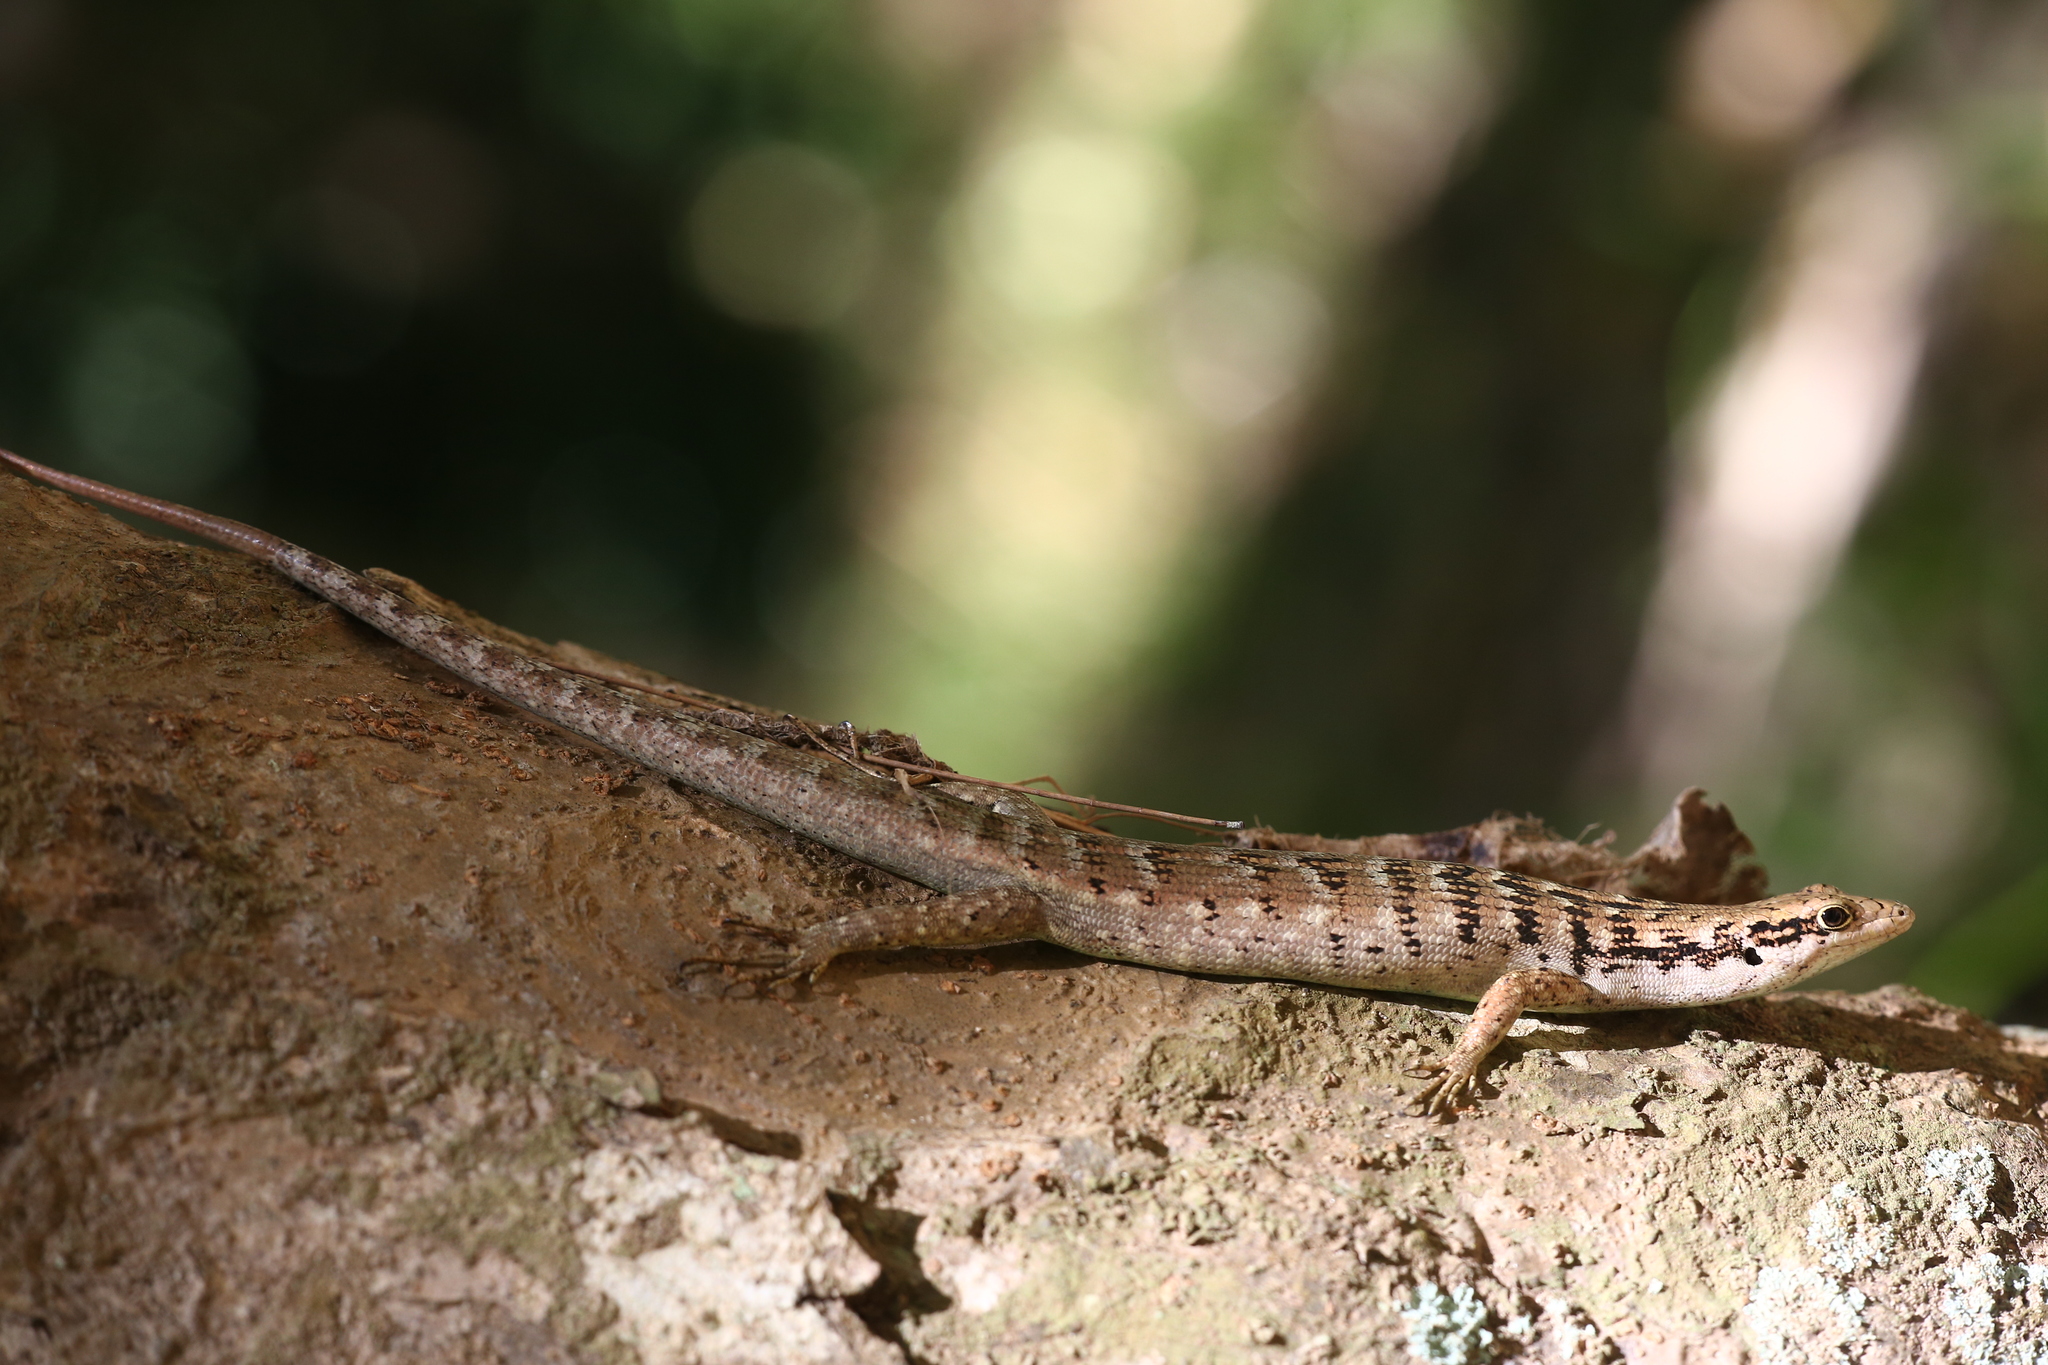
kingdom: Animalia
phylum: Chordata
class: Squamata
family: Scincidae
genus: Epibator
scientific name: Epibator nigrofasciolatus
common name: Green-bellied tree skink
